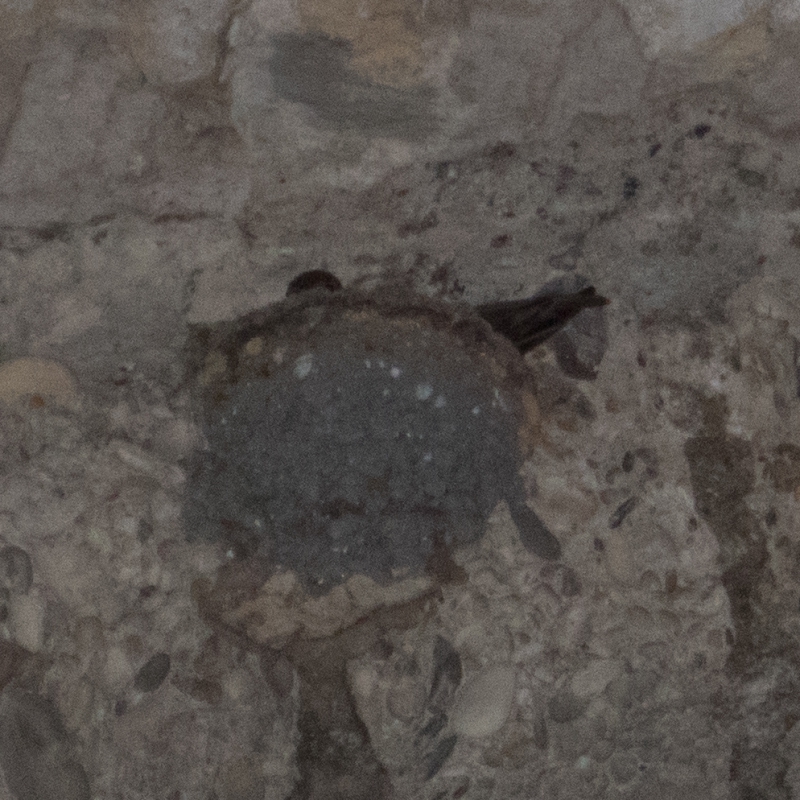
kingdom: Animalia
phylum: Chordata
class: Aves
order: Passeriformes
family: Hirundinidae
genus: Ptyonoprogne
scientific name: Ptyonoprogne rupestris
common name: Eurasian crag martin
